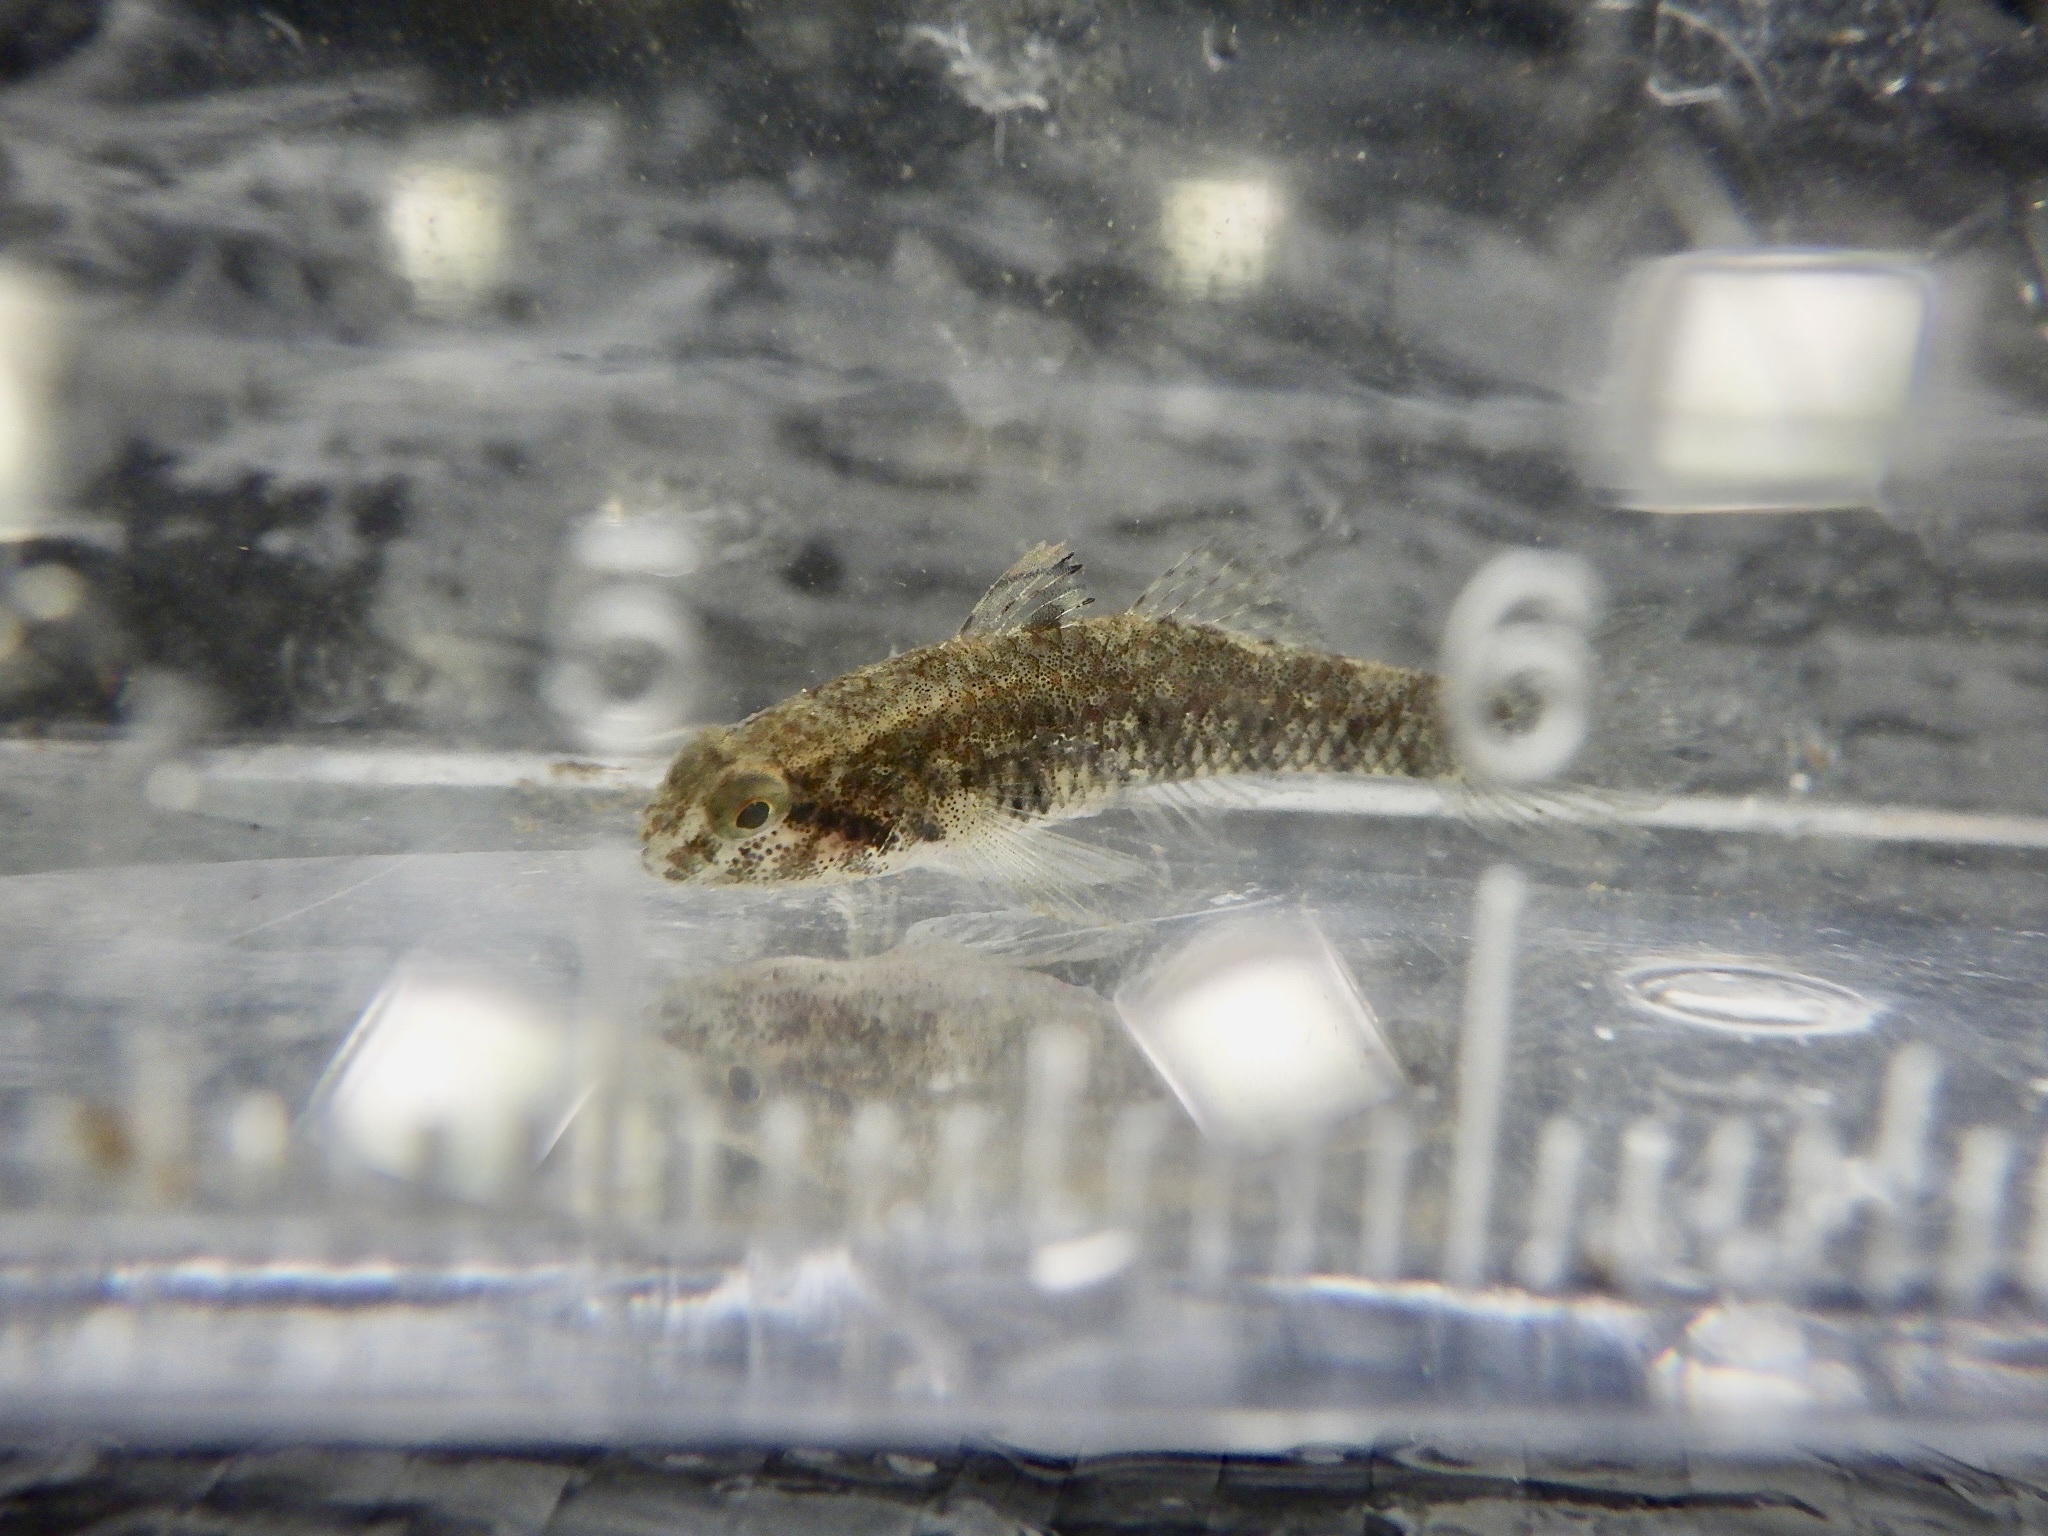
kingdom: Animalia
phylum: Chordata
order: Perciformes
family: Gobiidae
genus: Redigobius
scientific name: Redigobius bikolanus
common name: Bigmouth goby
